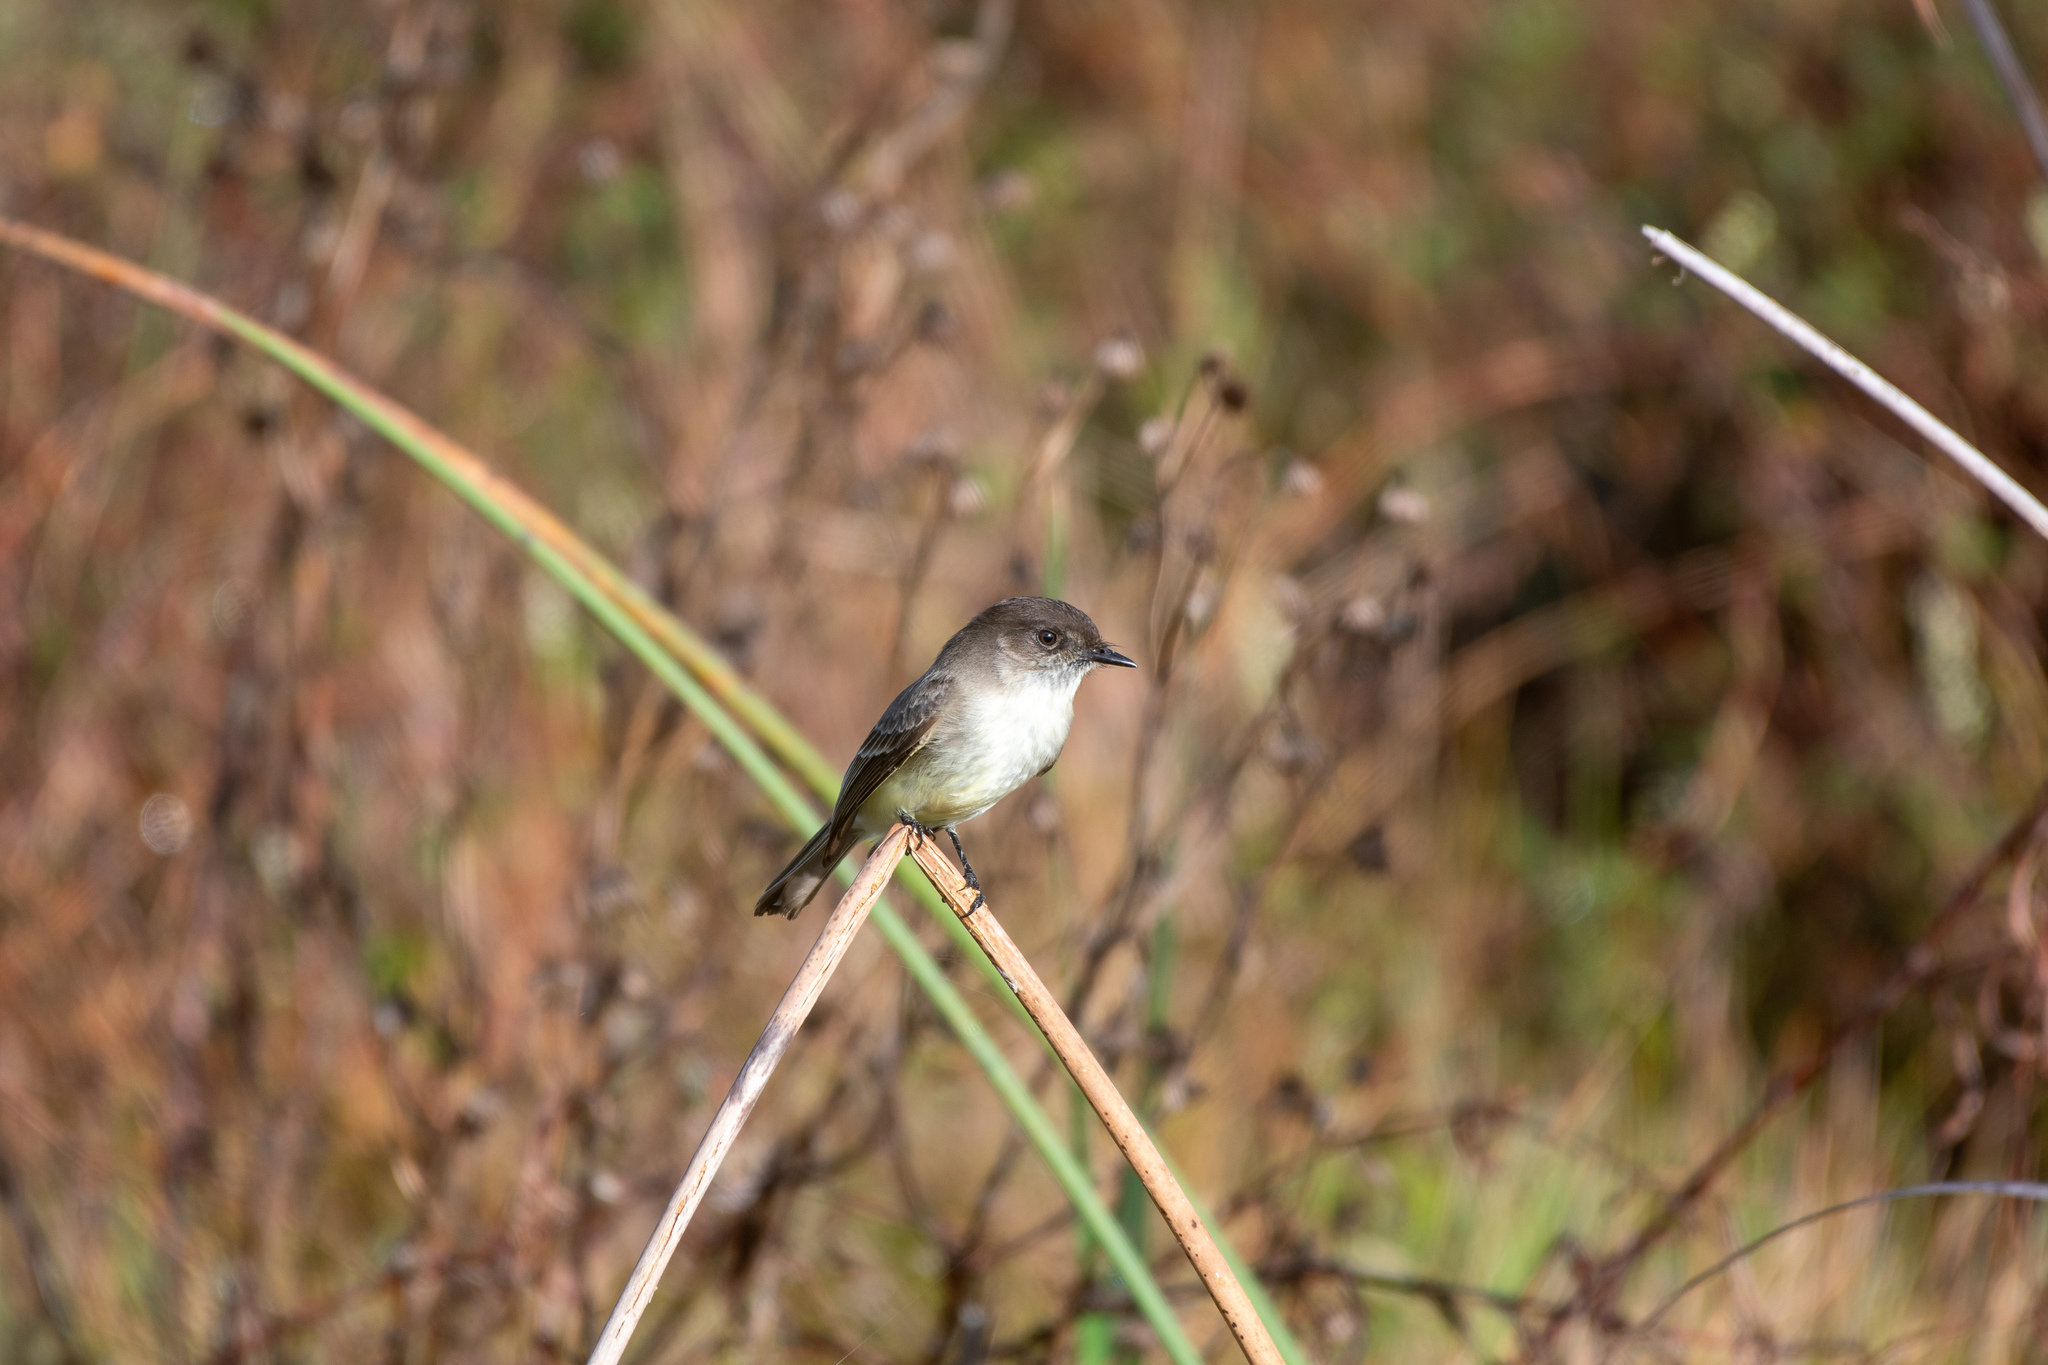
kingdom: Animalia
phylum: Chordata
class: Aves
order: Passeriformes
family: Tyrannidae
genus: Sayornis
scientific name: Sayornis phoebe
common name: Eastern phoebe
